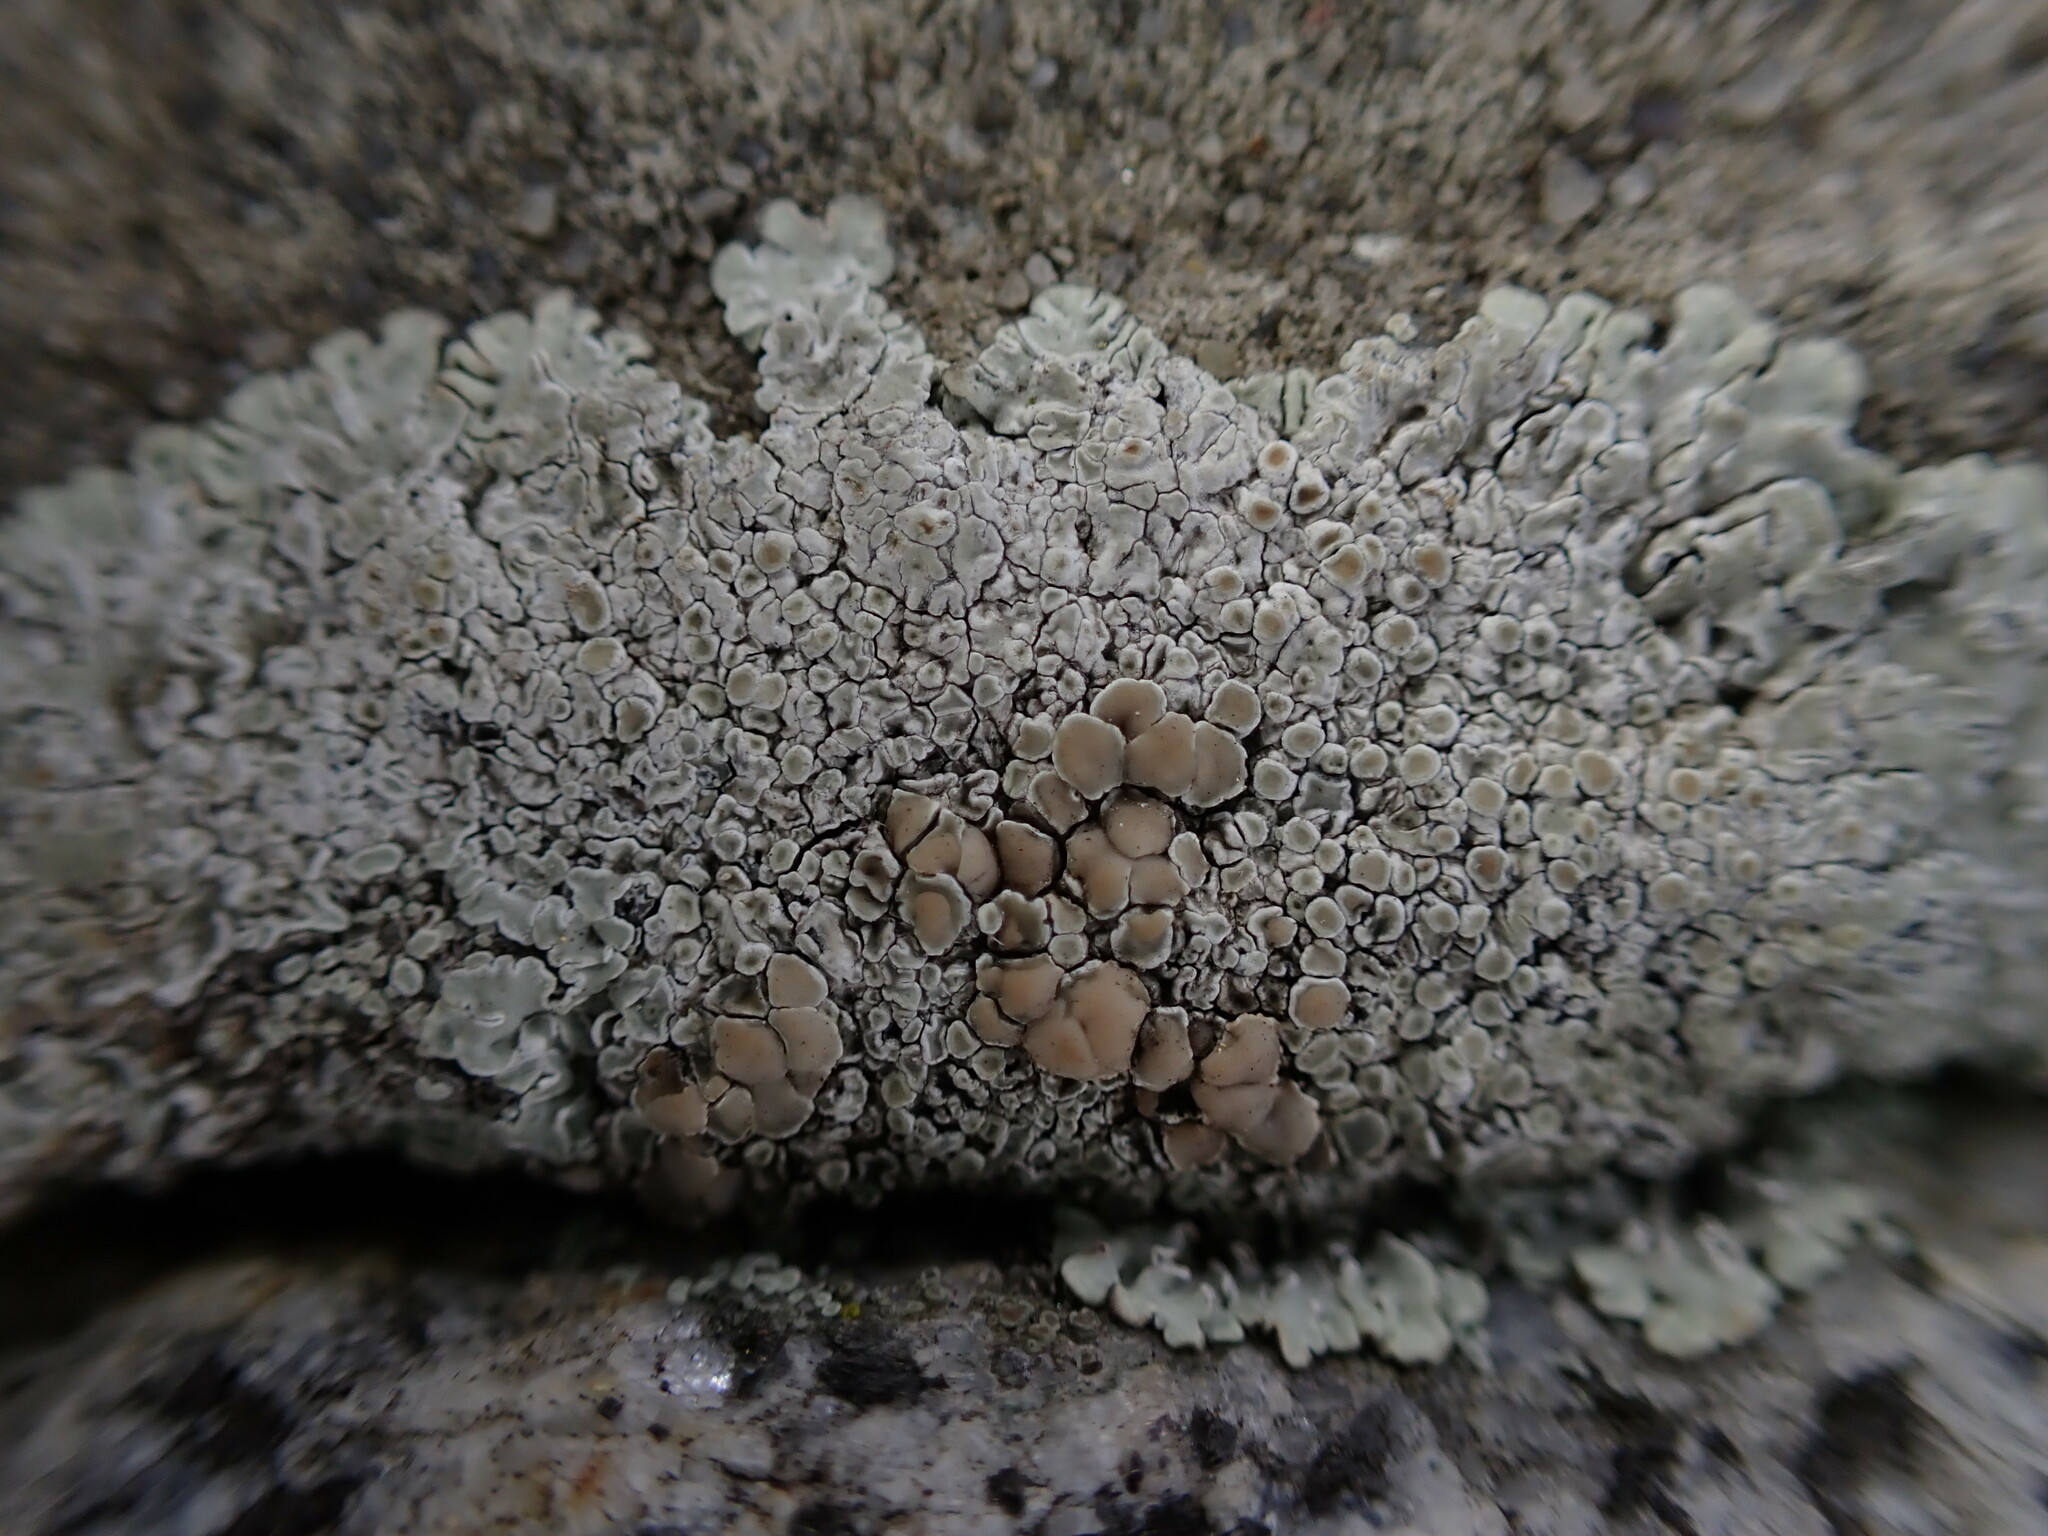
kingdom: Fungi
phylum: Ascomycota
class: Lecanoromycetes
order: Lecanorales
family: Lecanoraceae
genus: Protoparmeliopsis
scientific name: Protoparmeliopsis muralis
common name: Stonewall rim lichen
